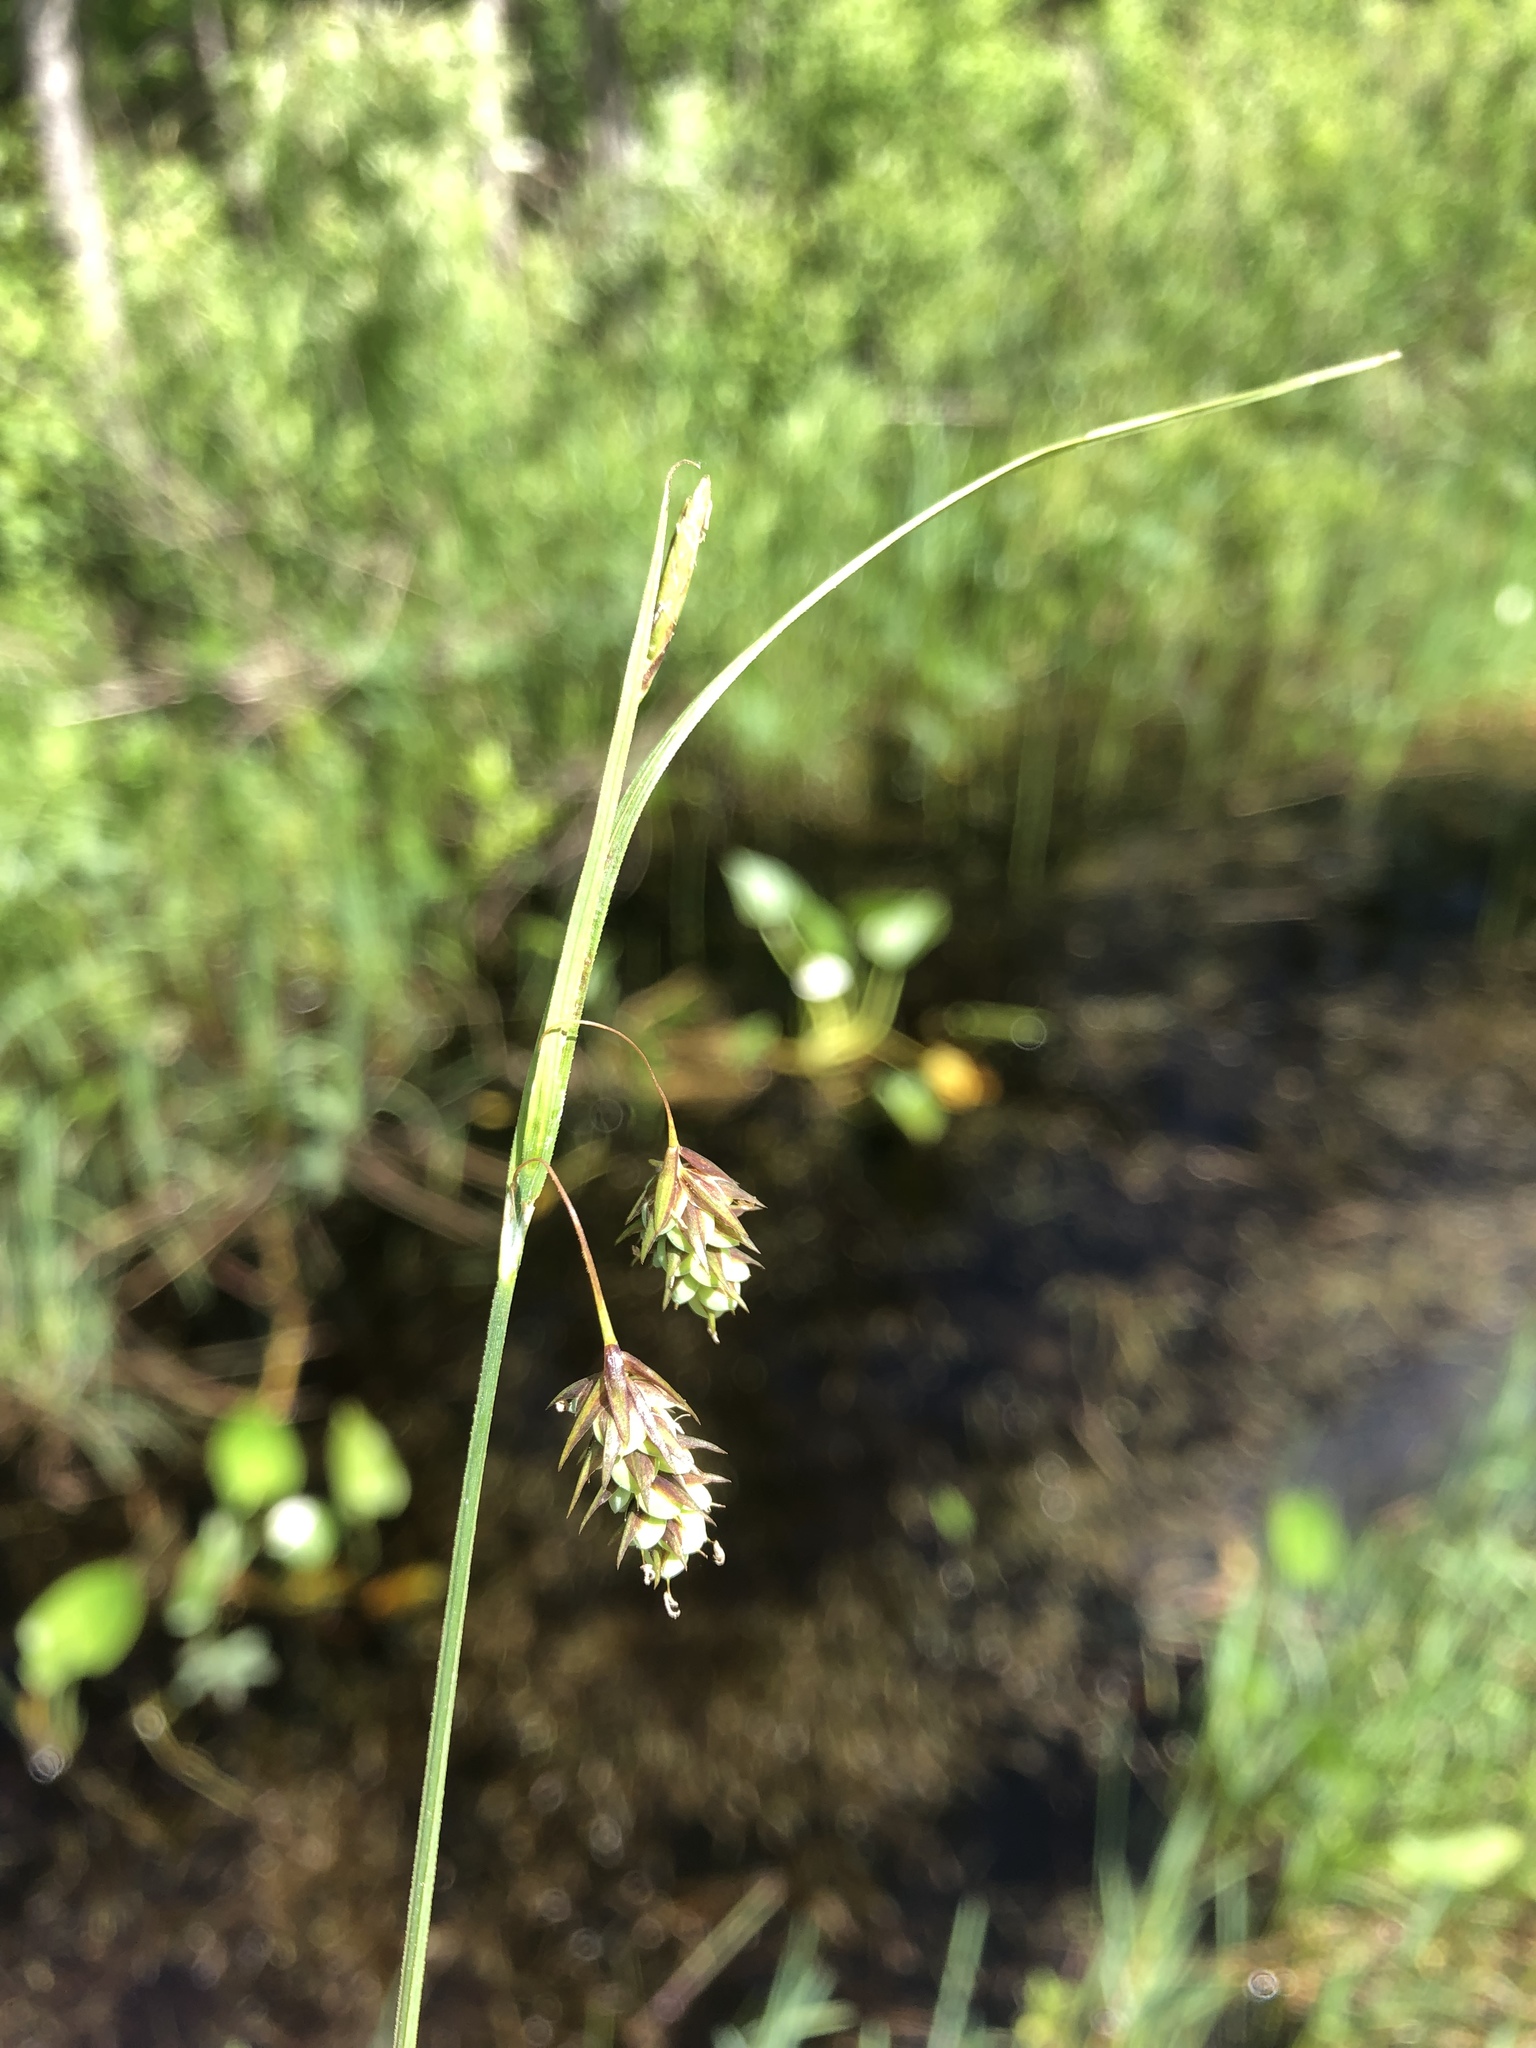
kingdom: Plantae
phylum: Tracheophyta
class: Liliopsida
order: Poales
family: Cyperaceae
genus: Carex
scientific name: Carex magellanica
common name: Bog sedge
